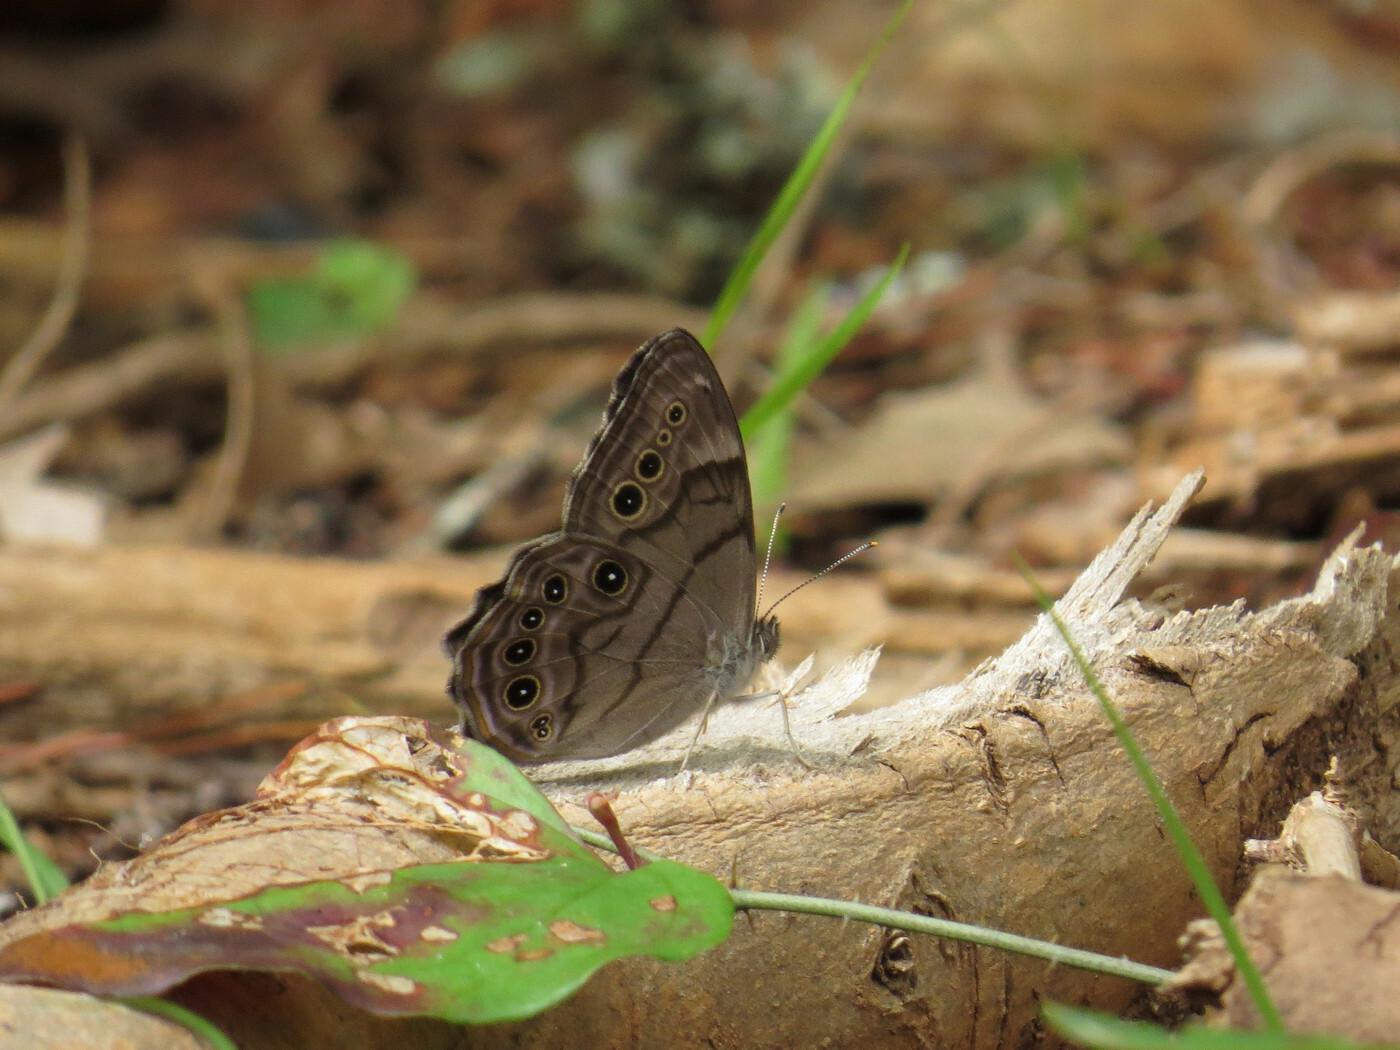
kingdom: Animalia
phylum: Arthropoda
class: Insecta
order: Lepidoptera
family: Nymphalidae
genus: Lethe
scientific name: Lethe anthedon
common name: Northern pearly-eye
